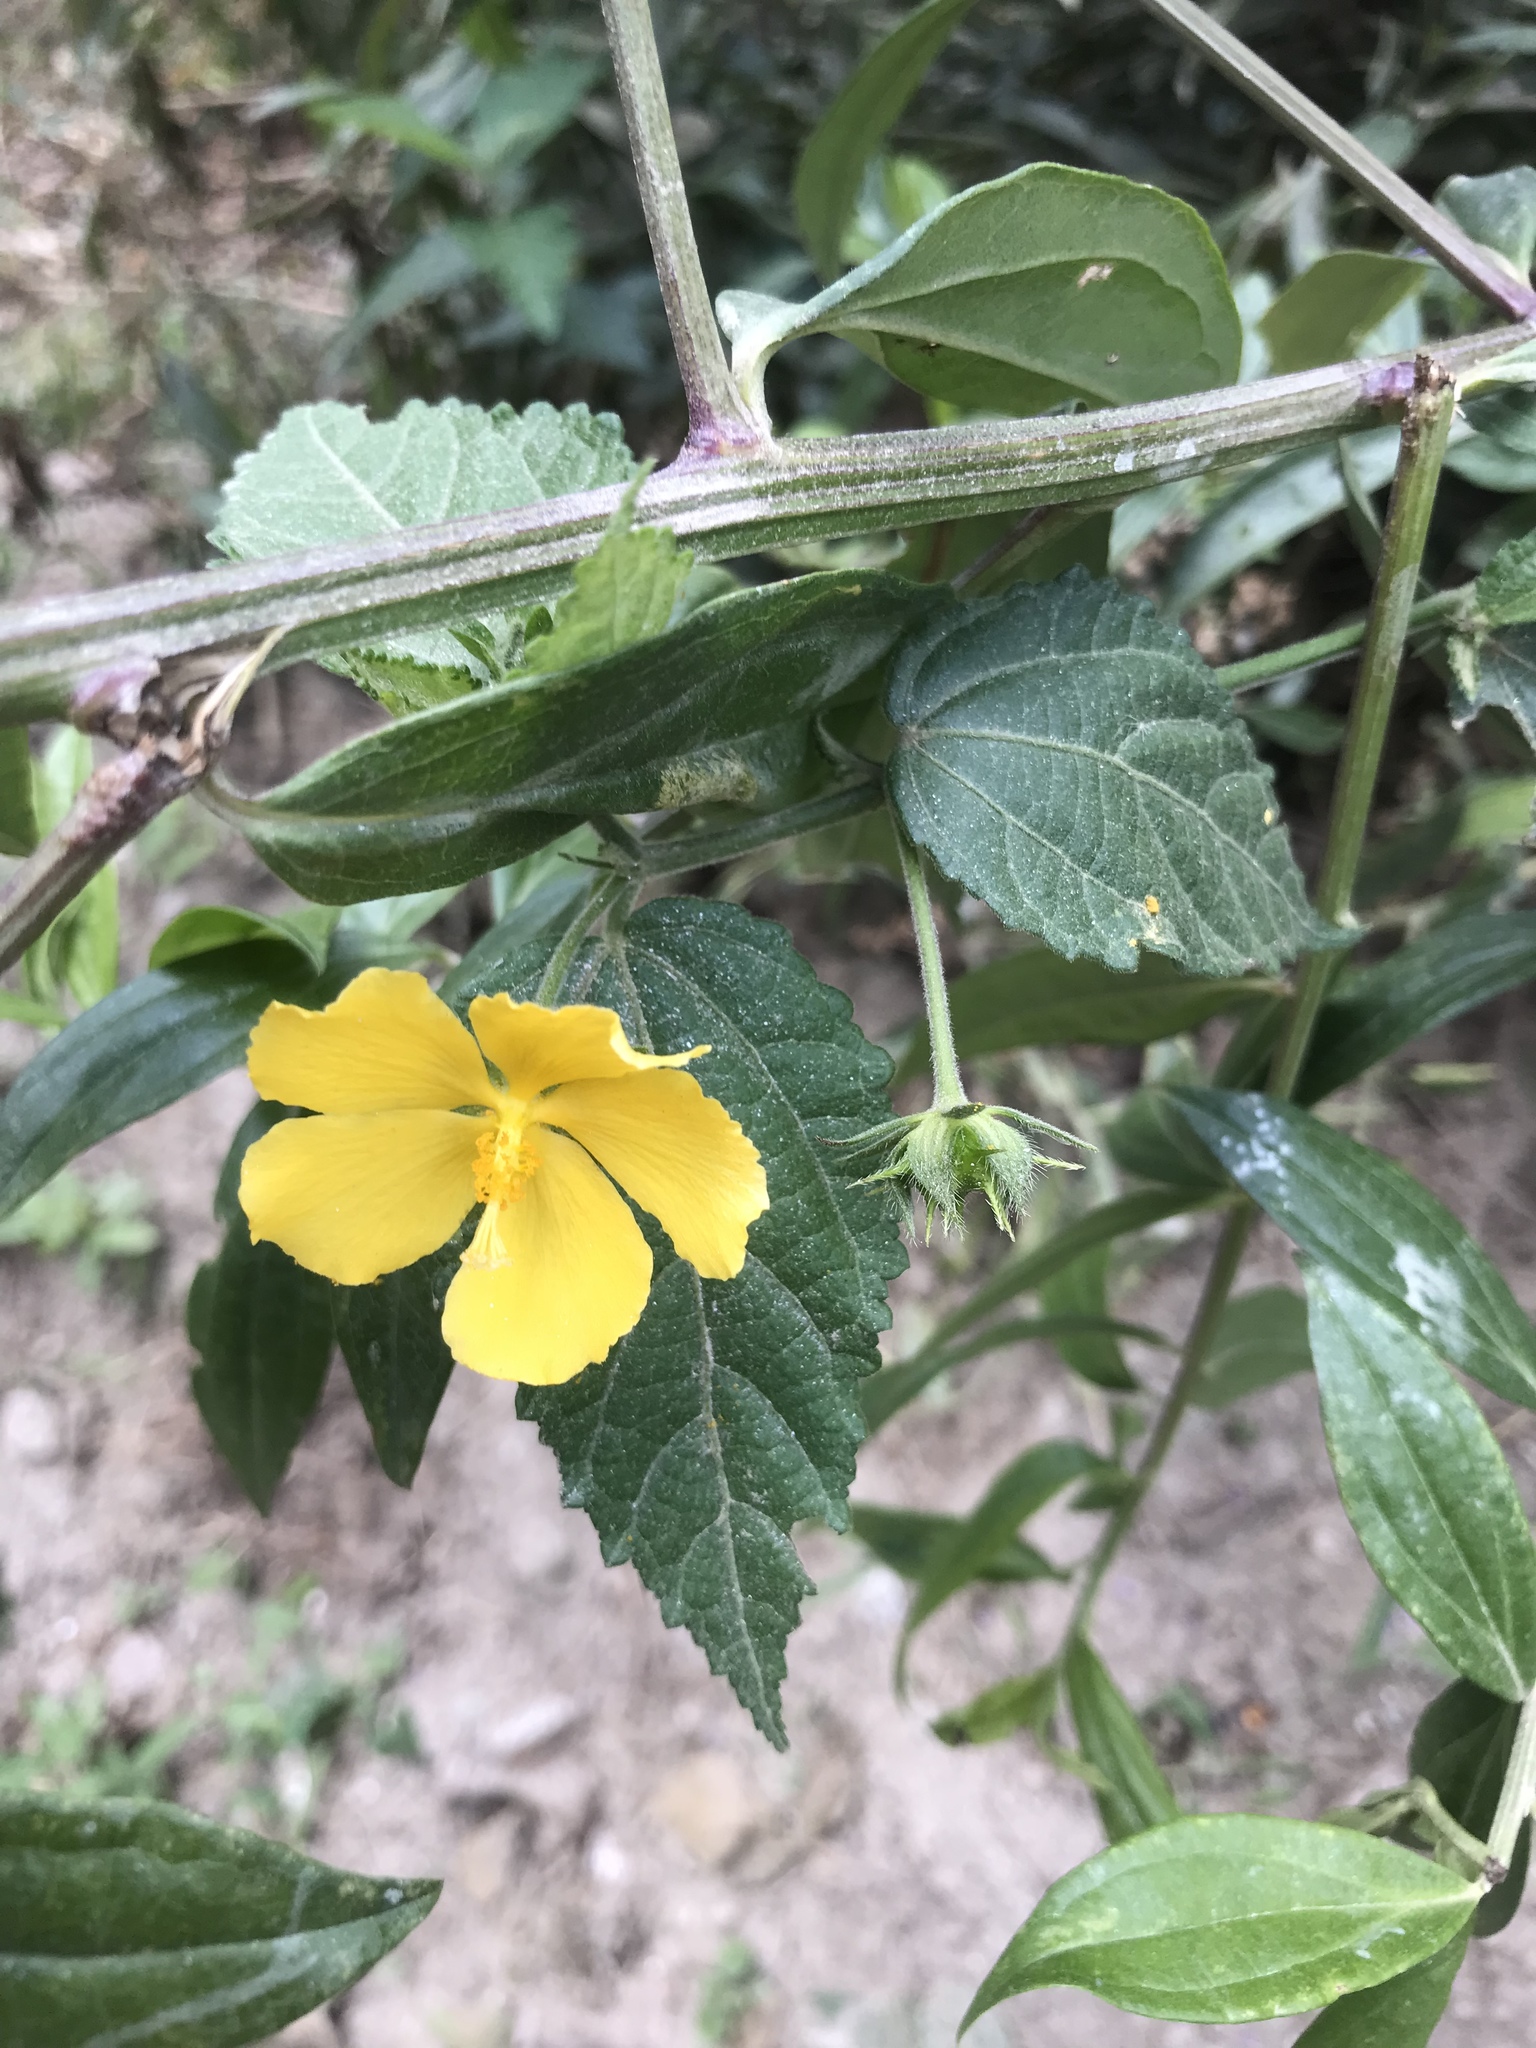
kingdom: Plantae
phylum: Tracheophyta
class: Magnoliopsida
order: Malvales
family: Malvaceae
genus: Pavonia
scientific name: Pavonia sepium
